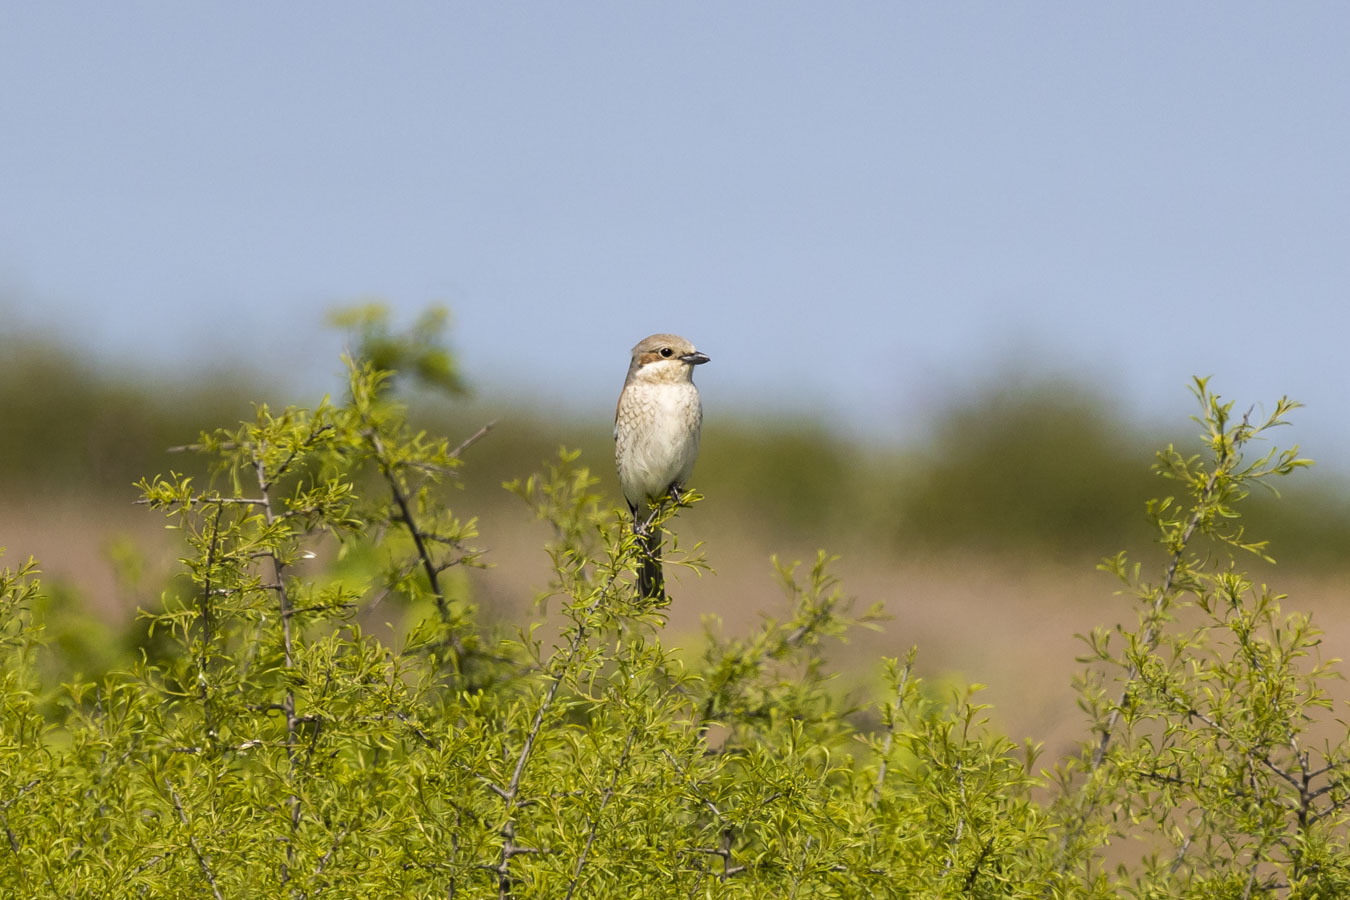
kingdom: Animalia
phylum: Chordata
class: Aves
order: Passeriformes
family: Laniidae
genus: Lanius
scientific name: Lanius collurio
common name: Red-backed shrike
